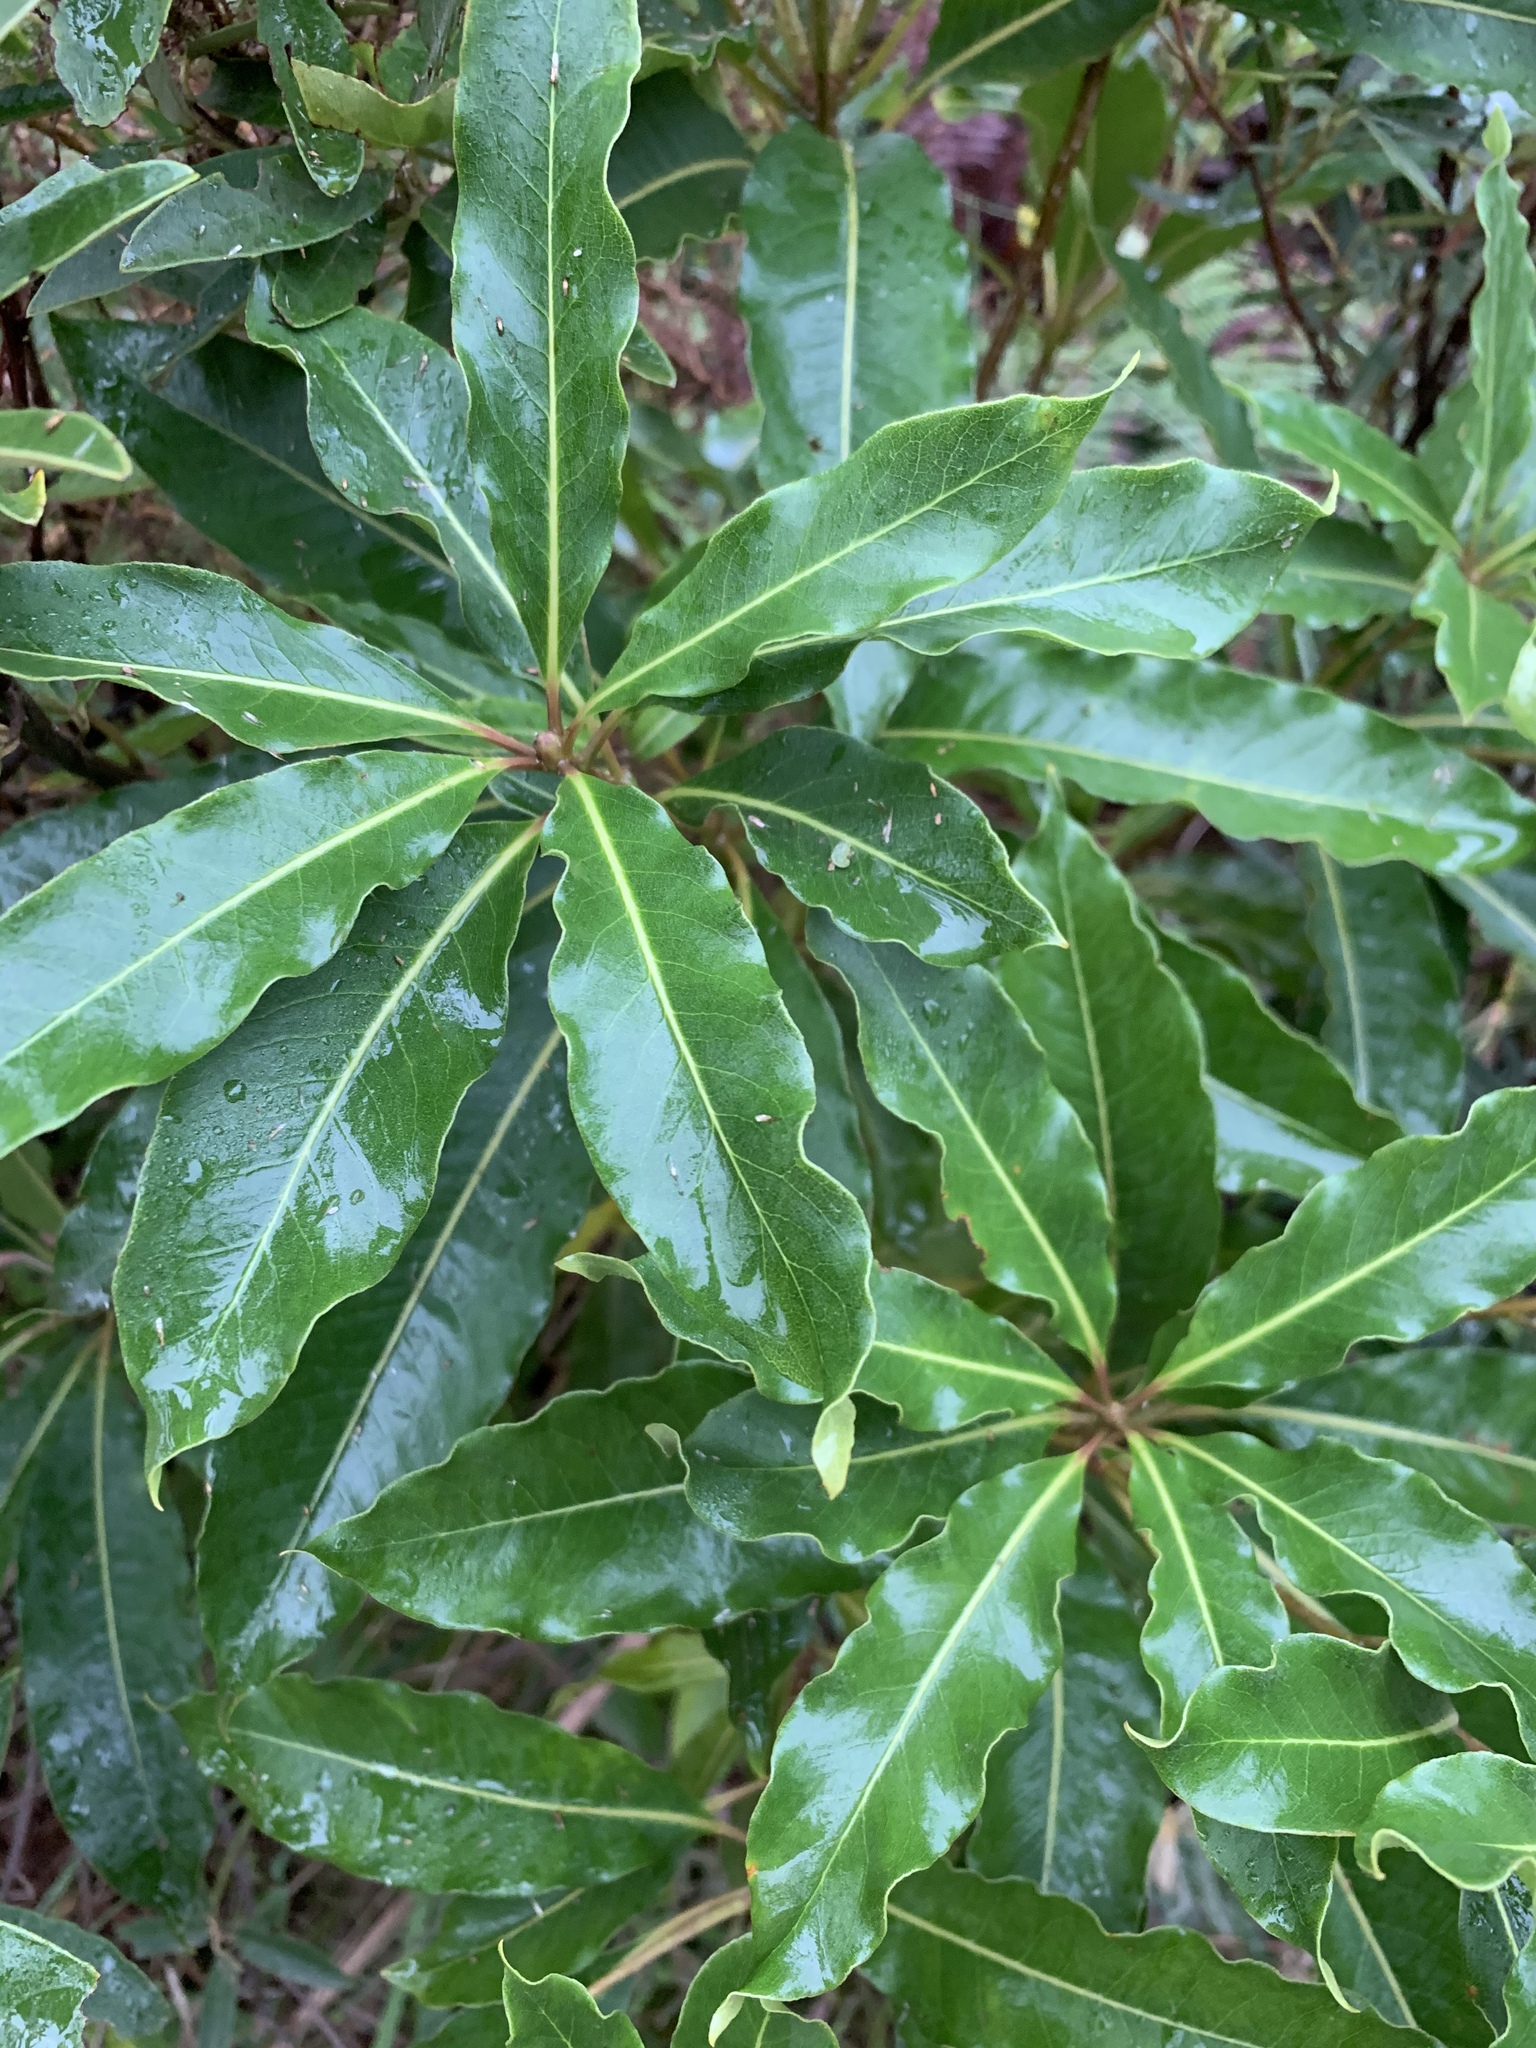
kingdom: Plantae
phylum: Tracheophyta
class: Magnoliopsida
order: Apiales
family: Pittosporaceae
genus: Pittosporum
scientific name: Pittosporum undulatum
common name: Australian cheesewood
